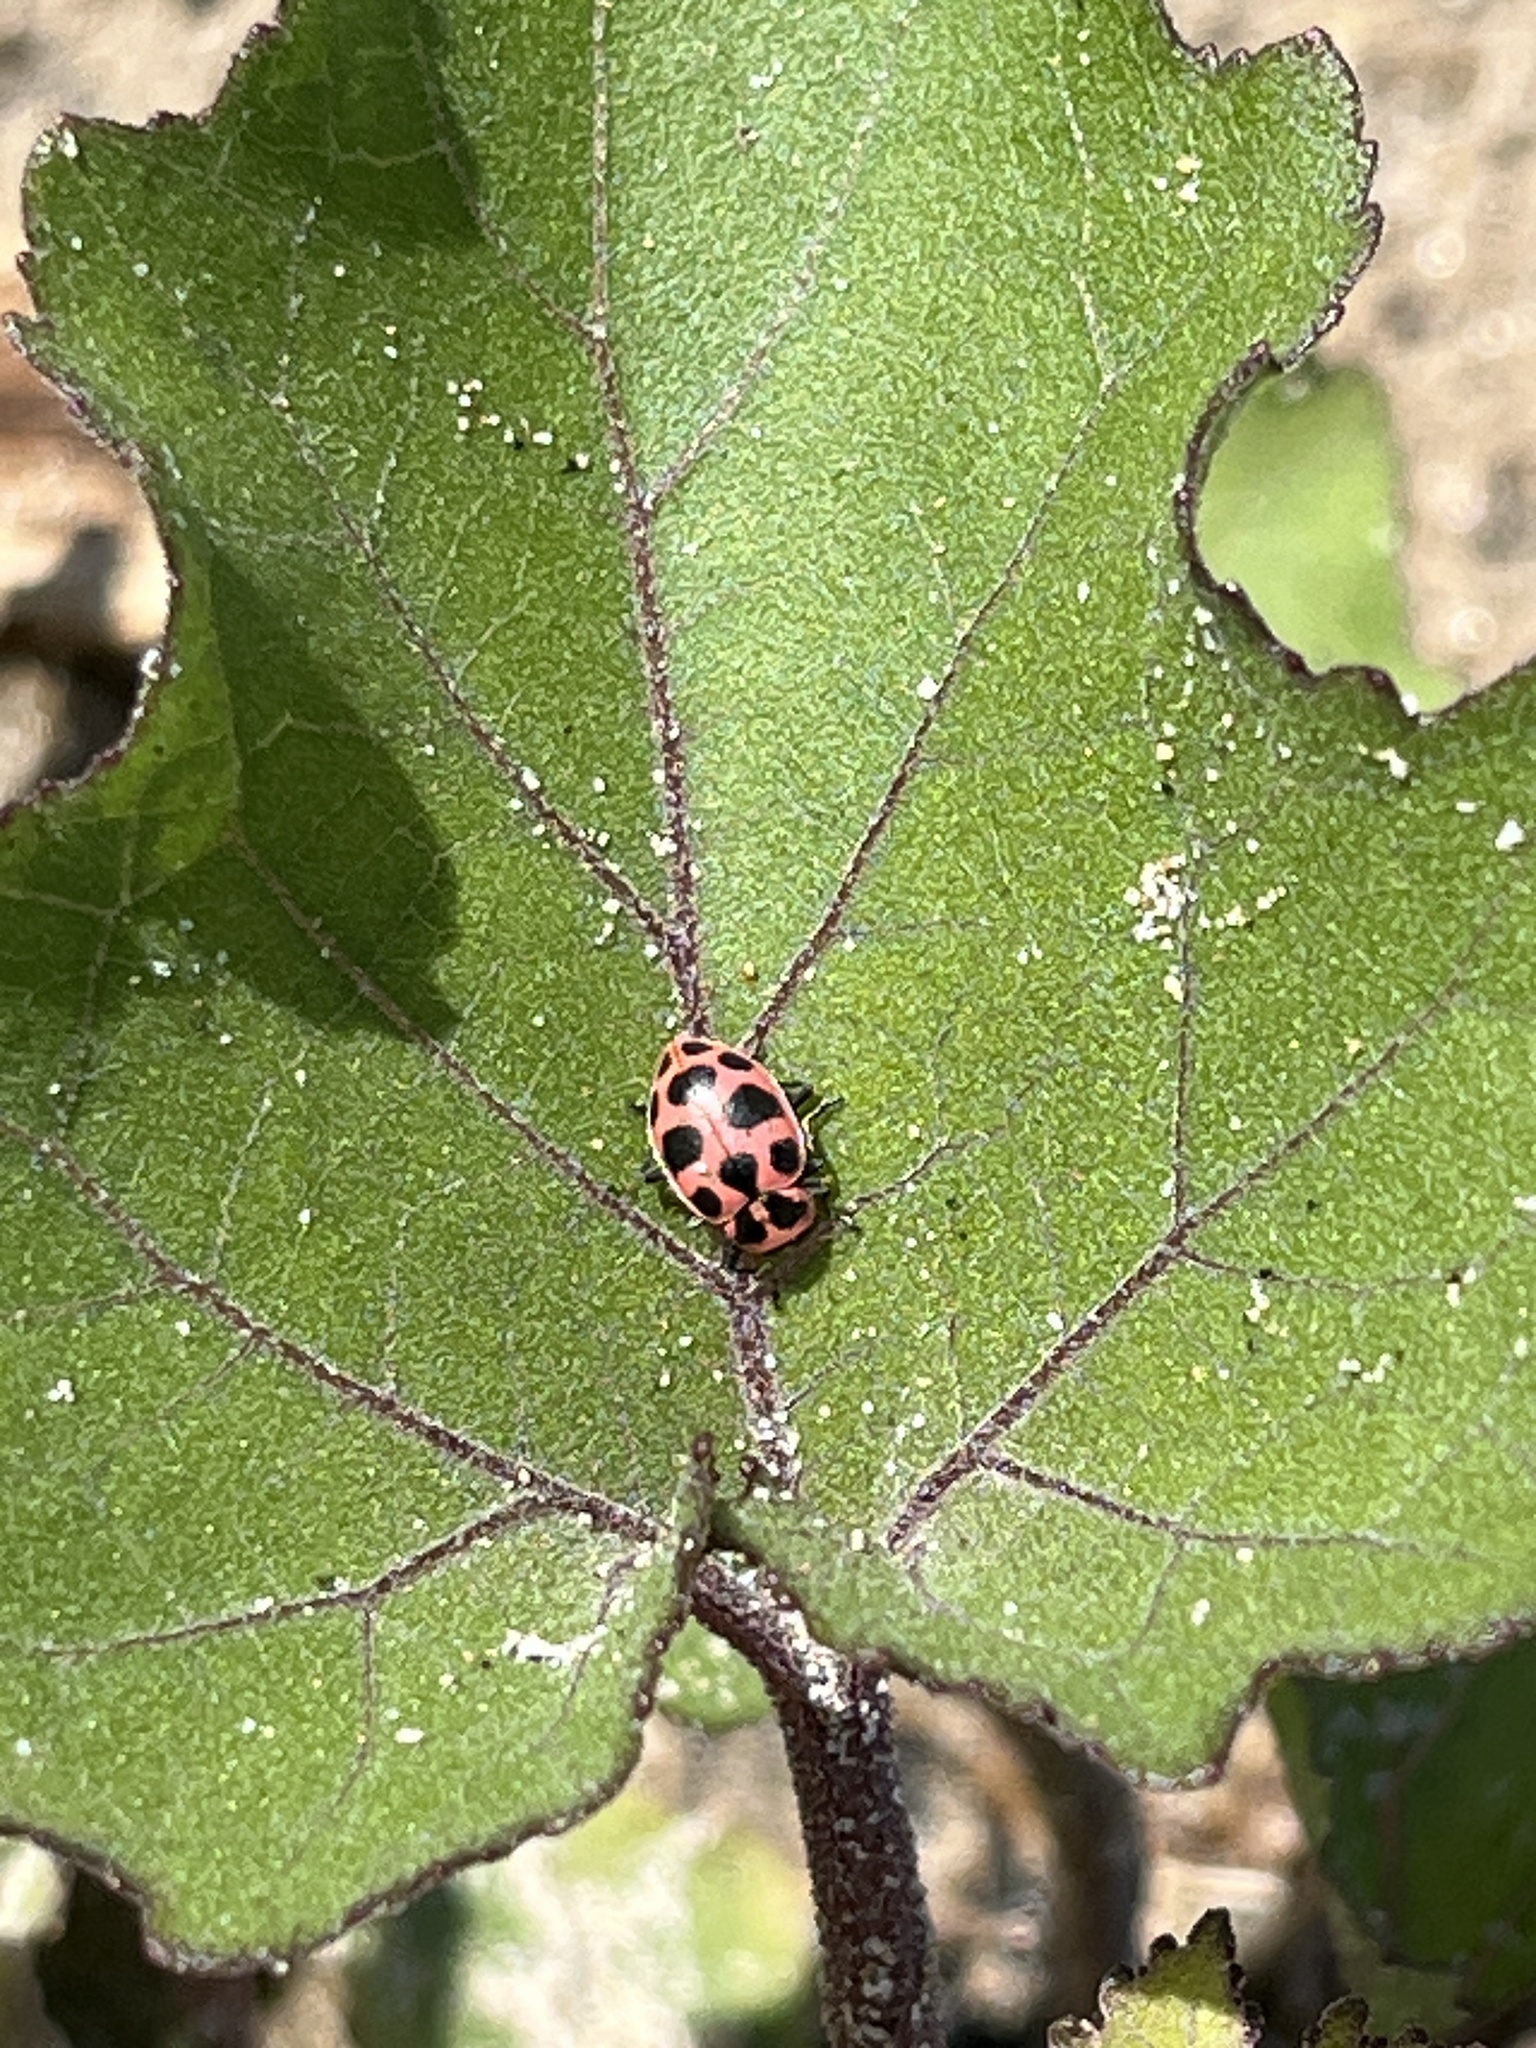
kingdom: Animalia
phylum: Arthropoda
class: Insecta
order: Coleoptera
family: Coccinellidae
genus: Coleomegilla
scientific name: Coleomegilla maculata
